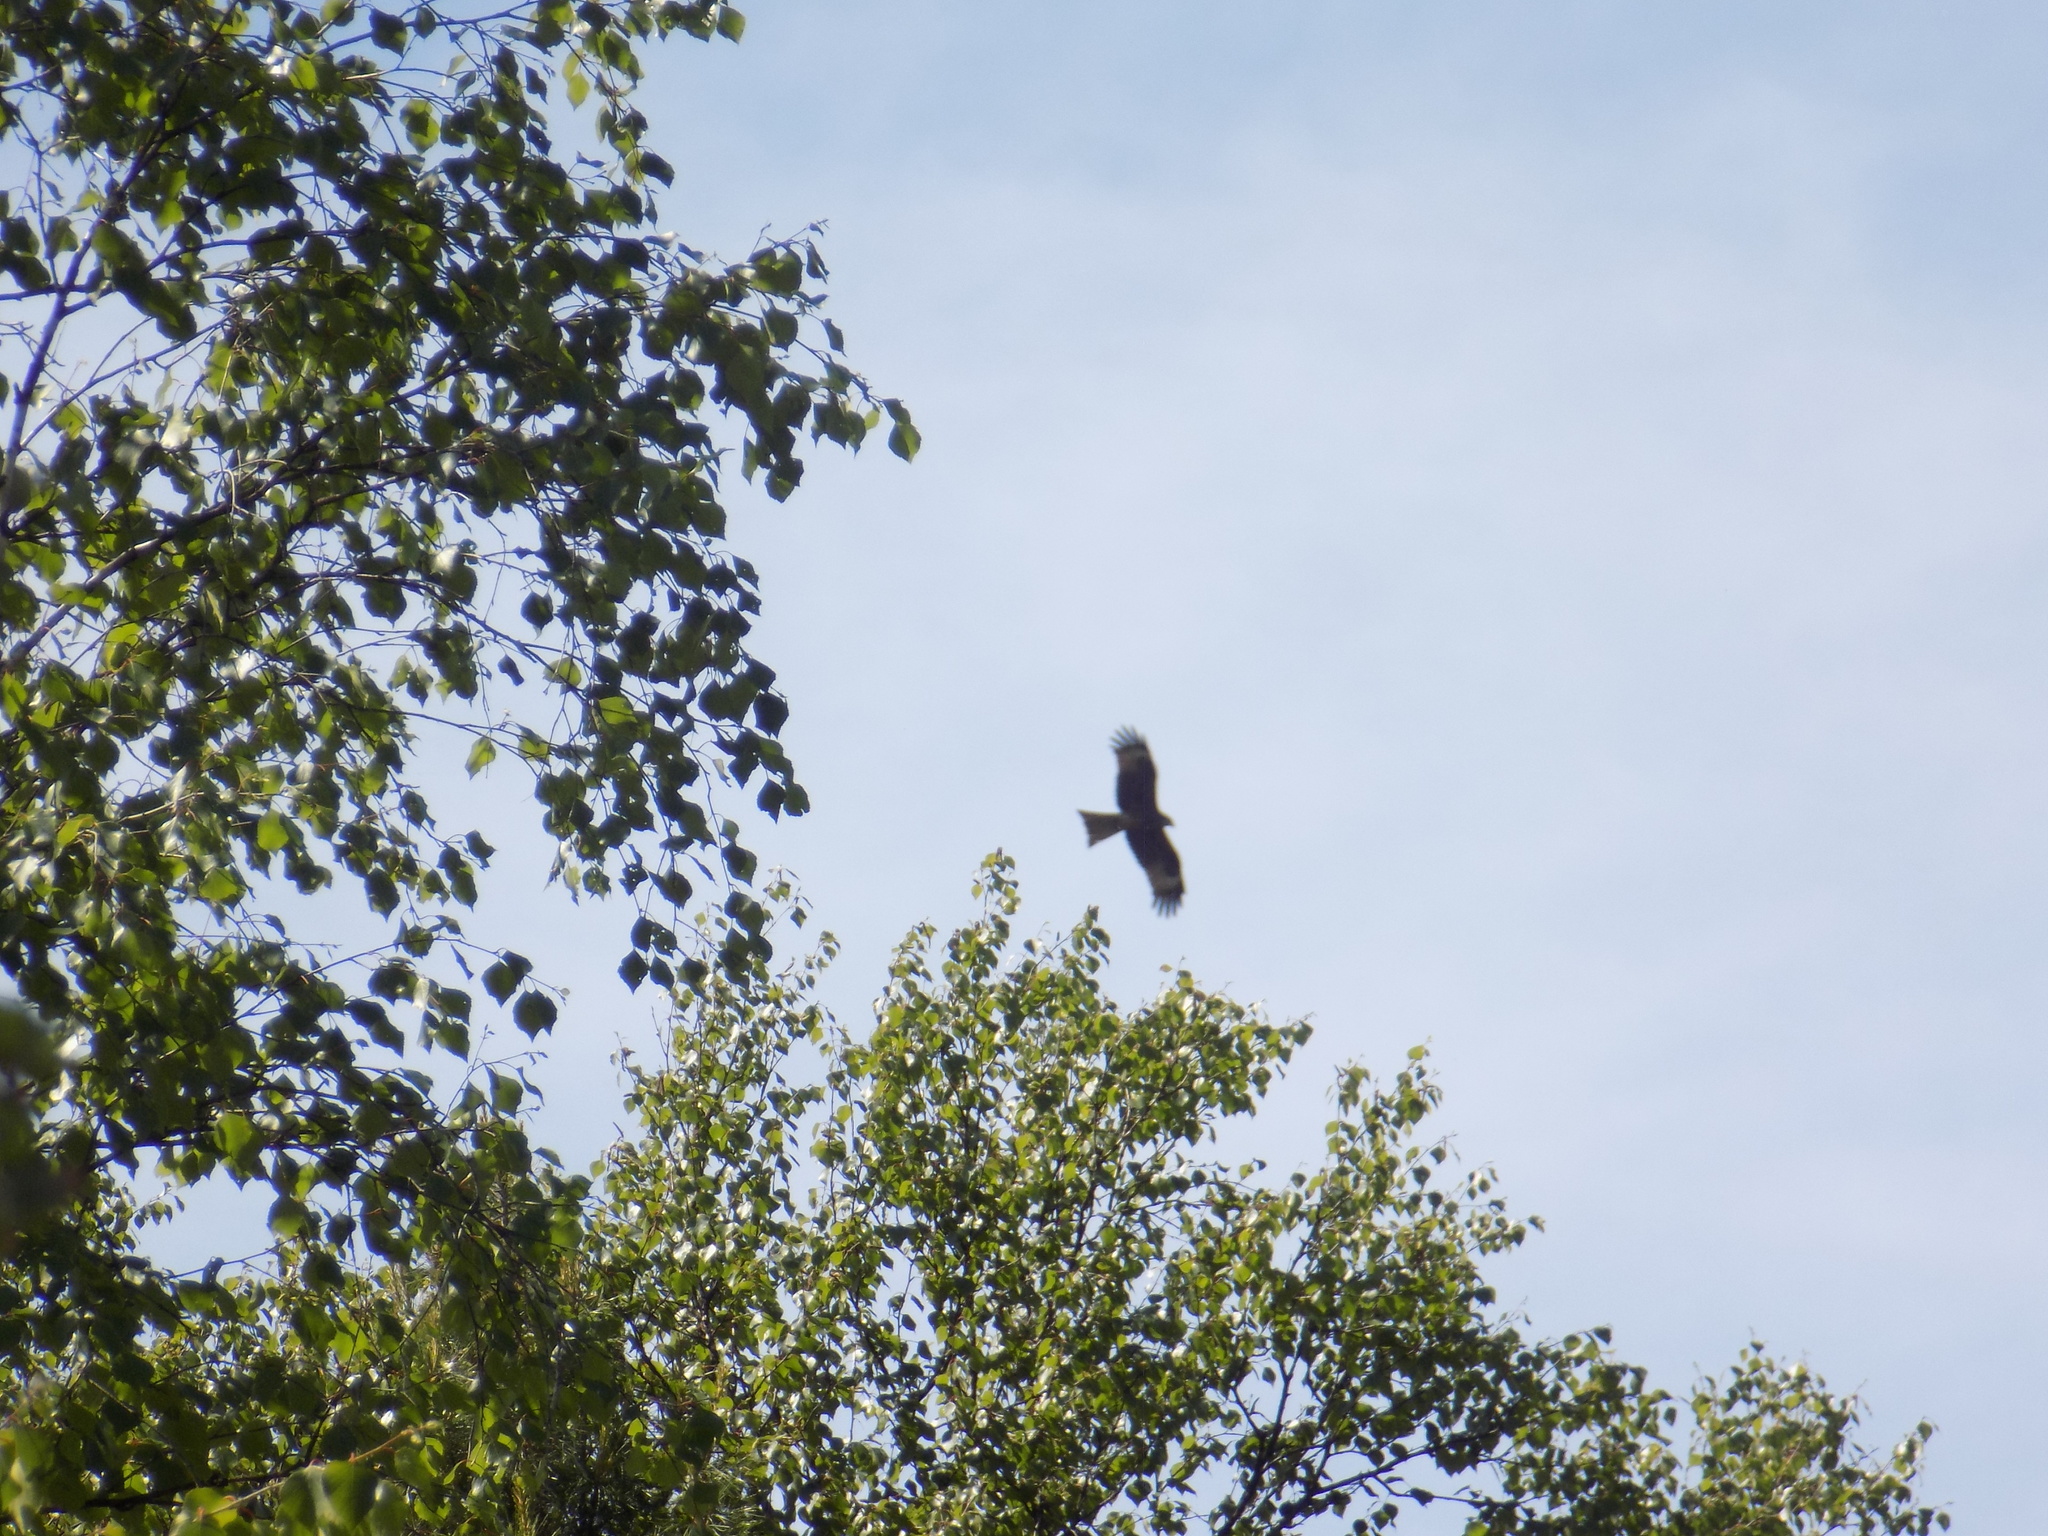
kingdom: Animalia
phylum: Chordata
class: Aves
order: Accipitriformes
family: Accipitridae
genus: Milvus
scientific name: Milvus migrans
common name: Black kite
